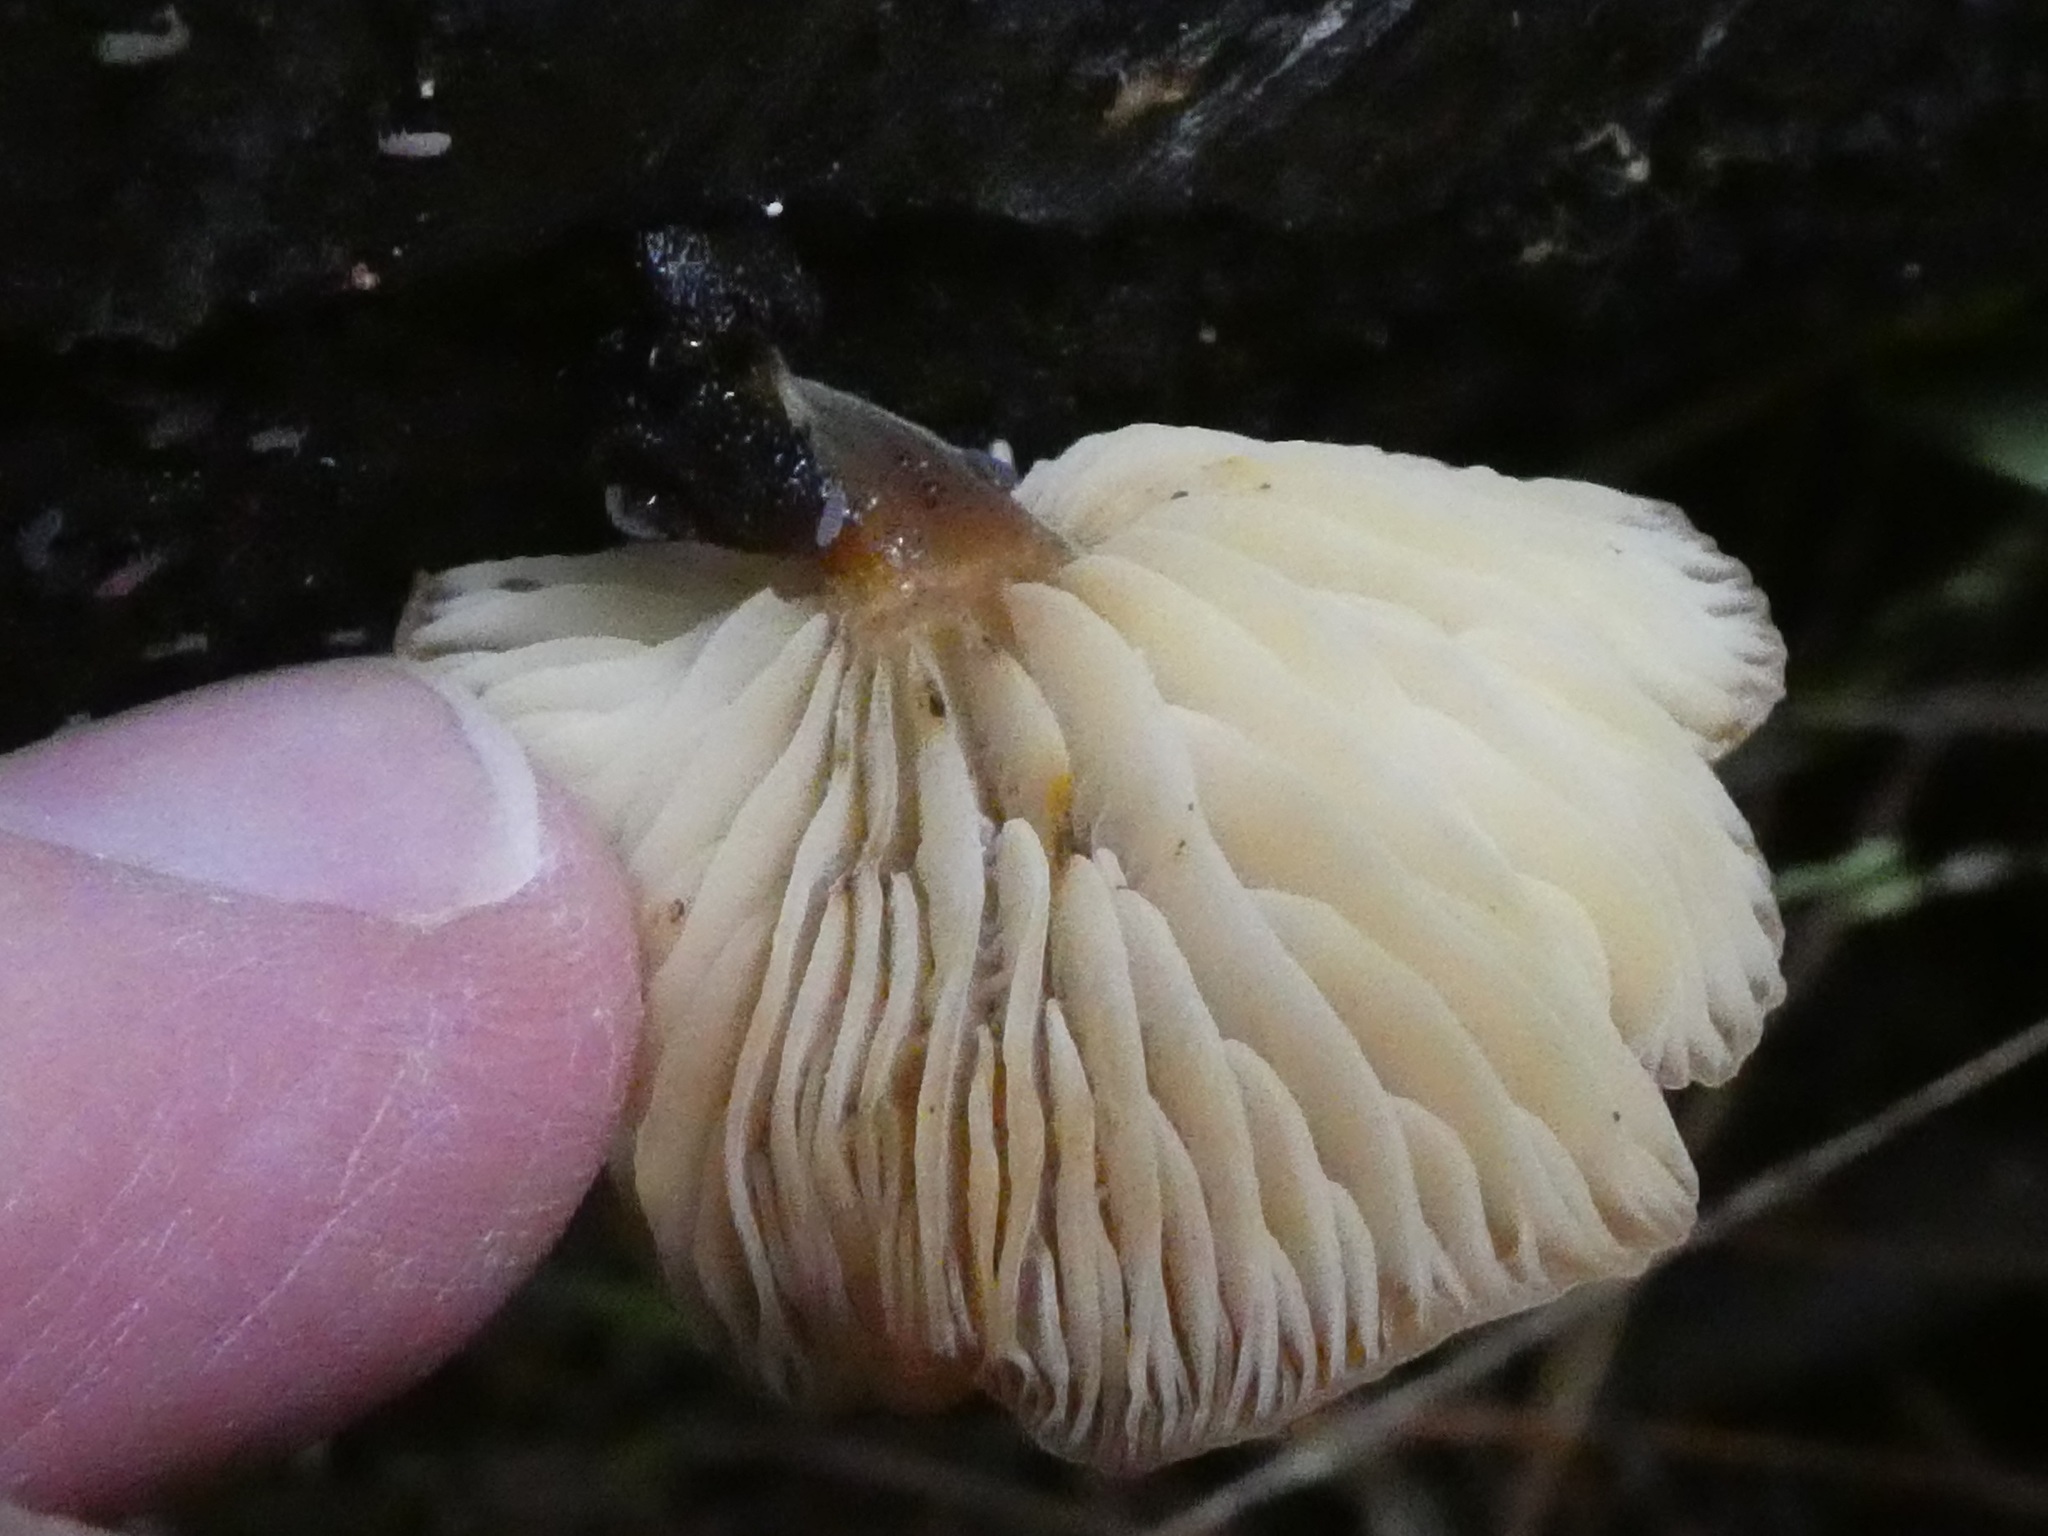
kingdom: Fungi
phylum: Basidiomycota
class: Agaricomycetes
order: Agaricales
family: Physalacriaceae
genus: Flammulina
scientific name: Flammulina velutipes
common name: Velvet shank
